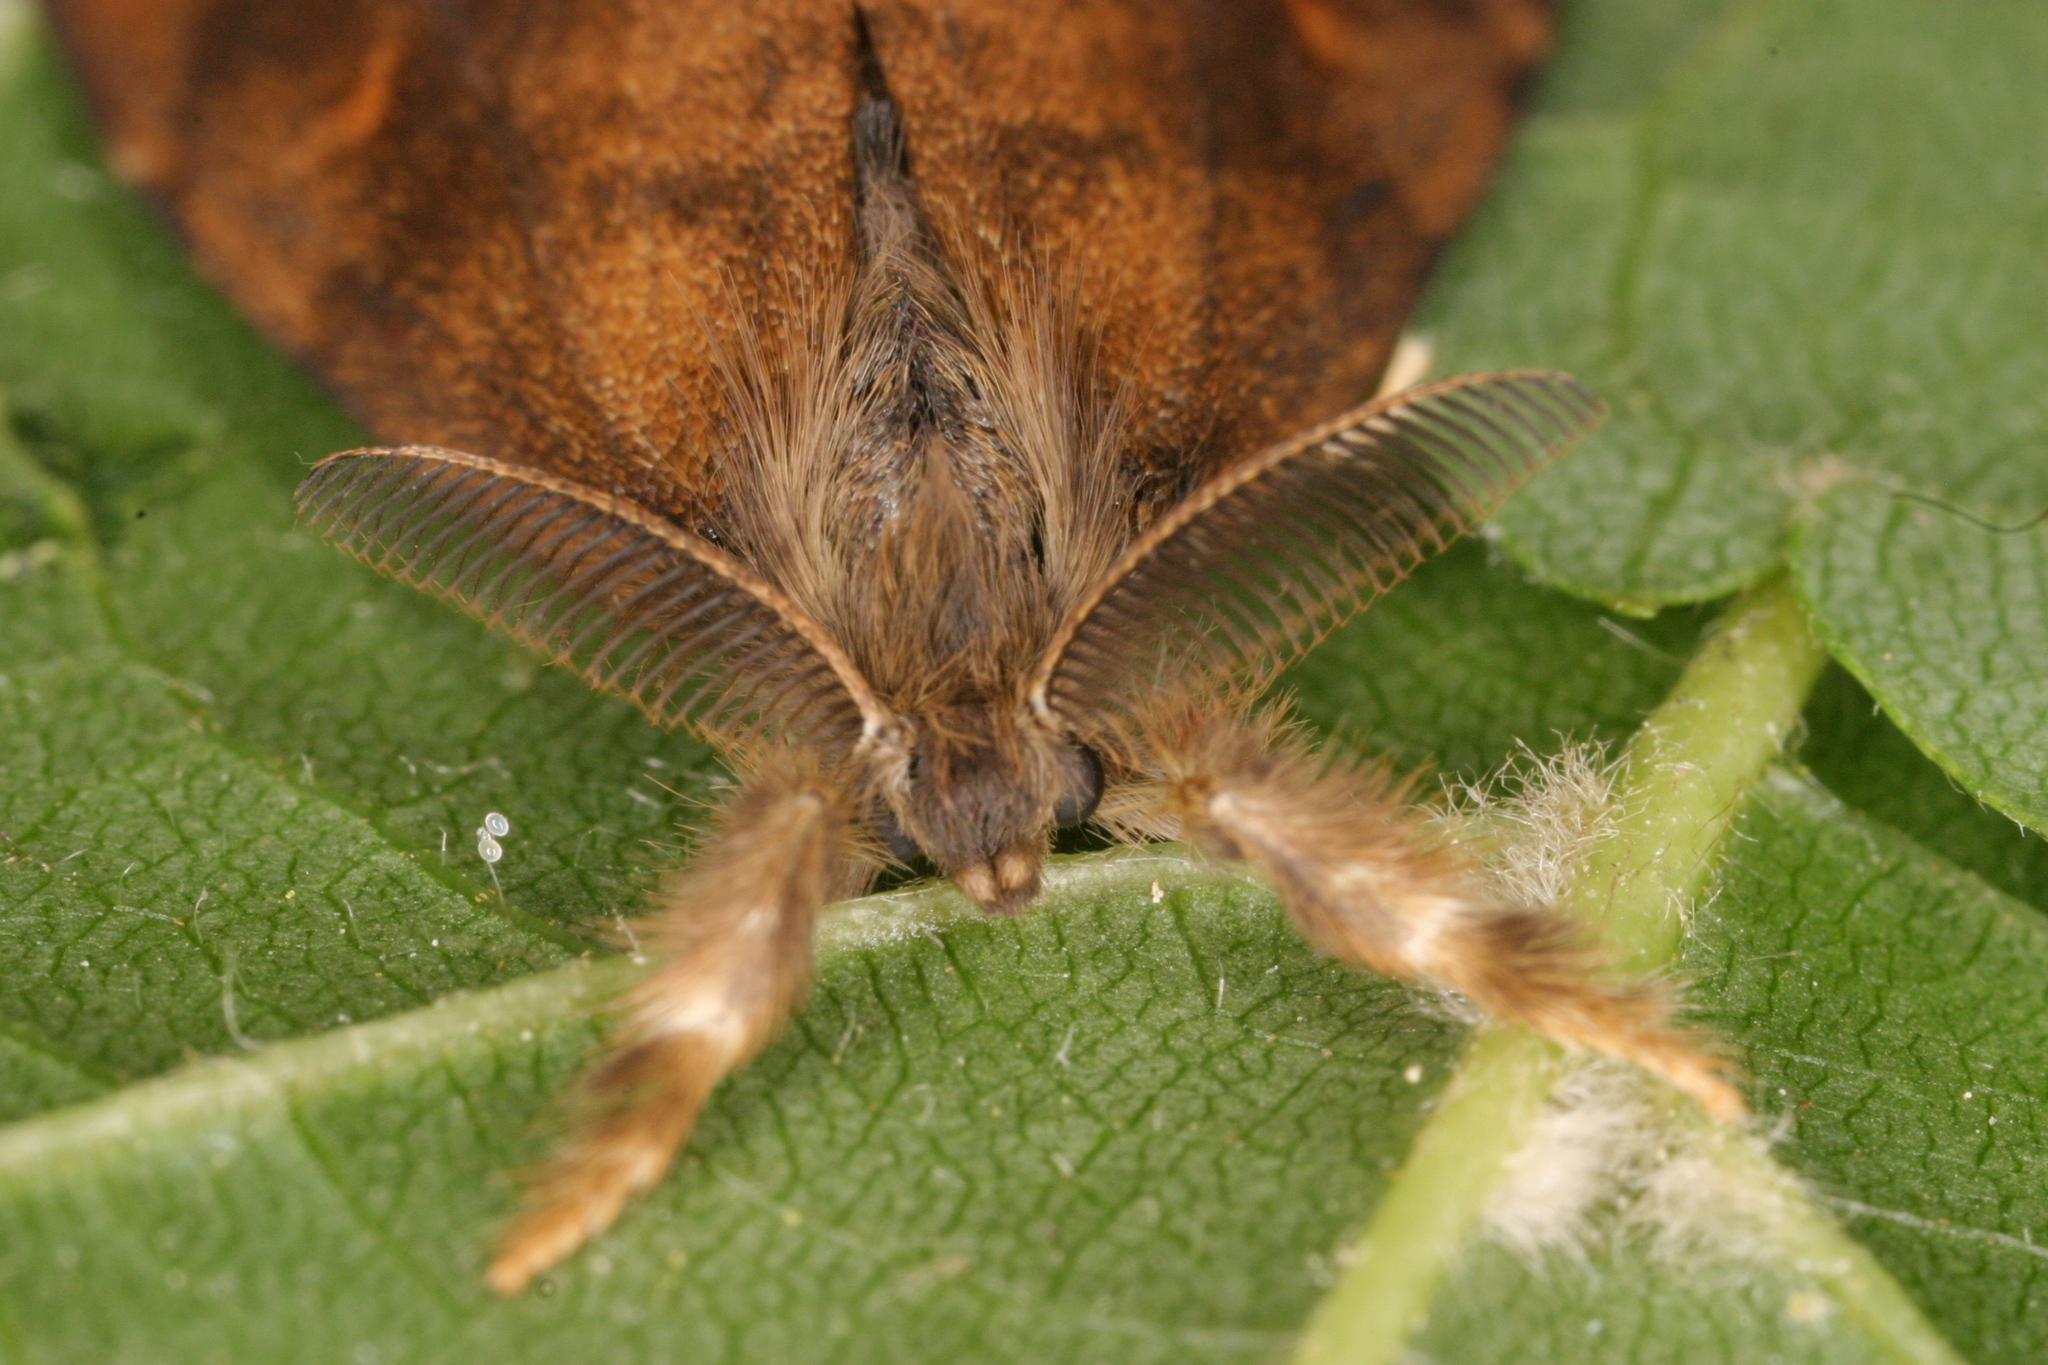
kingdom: Animalia
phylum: Arthropoda
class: Insecta
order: Lepidoptera
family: Erebidae
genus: Orgyia
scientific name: Orgyia antiqua
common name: Vapourer
